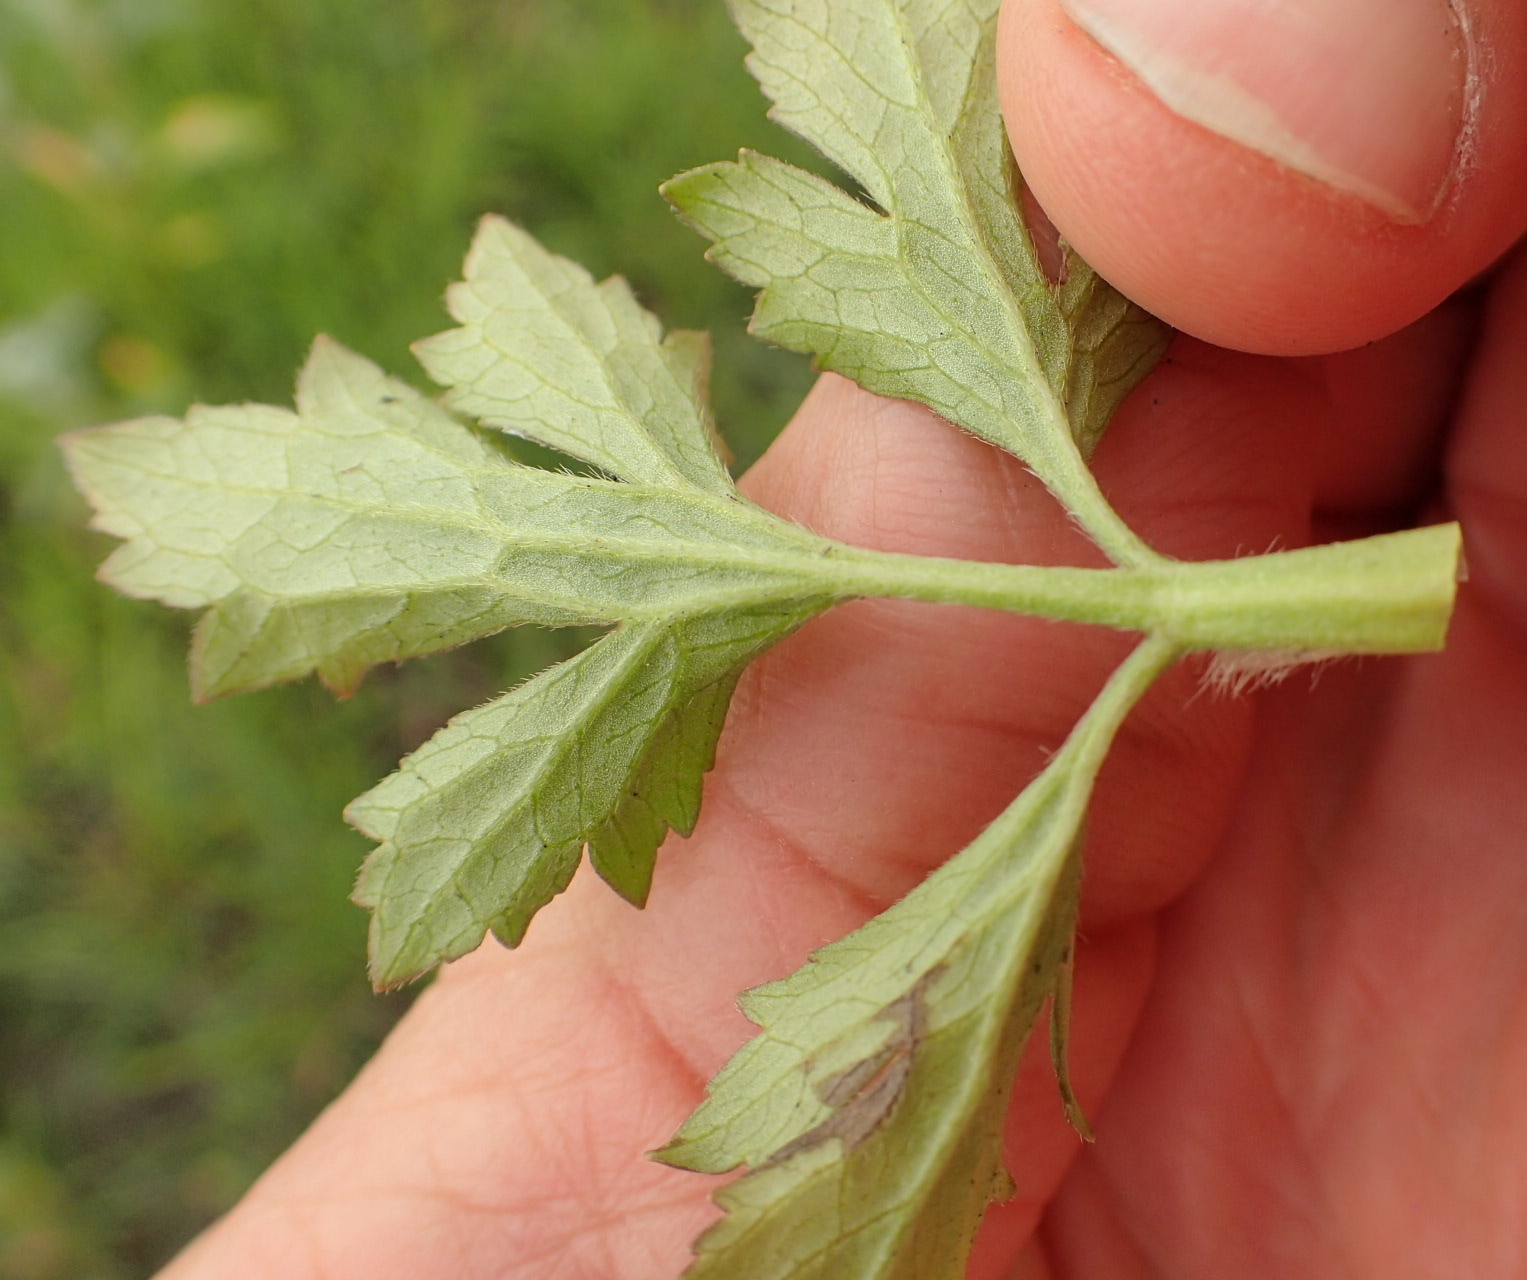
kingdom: Plantae
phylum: Tracheophyta
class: Magnoliopsida
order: Ranunculales
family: Ranunculaceae
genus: Ranunculus
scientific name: Ranunculus multifidus
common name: Wild buttercup
